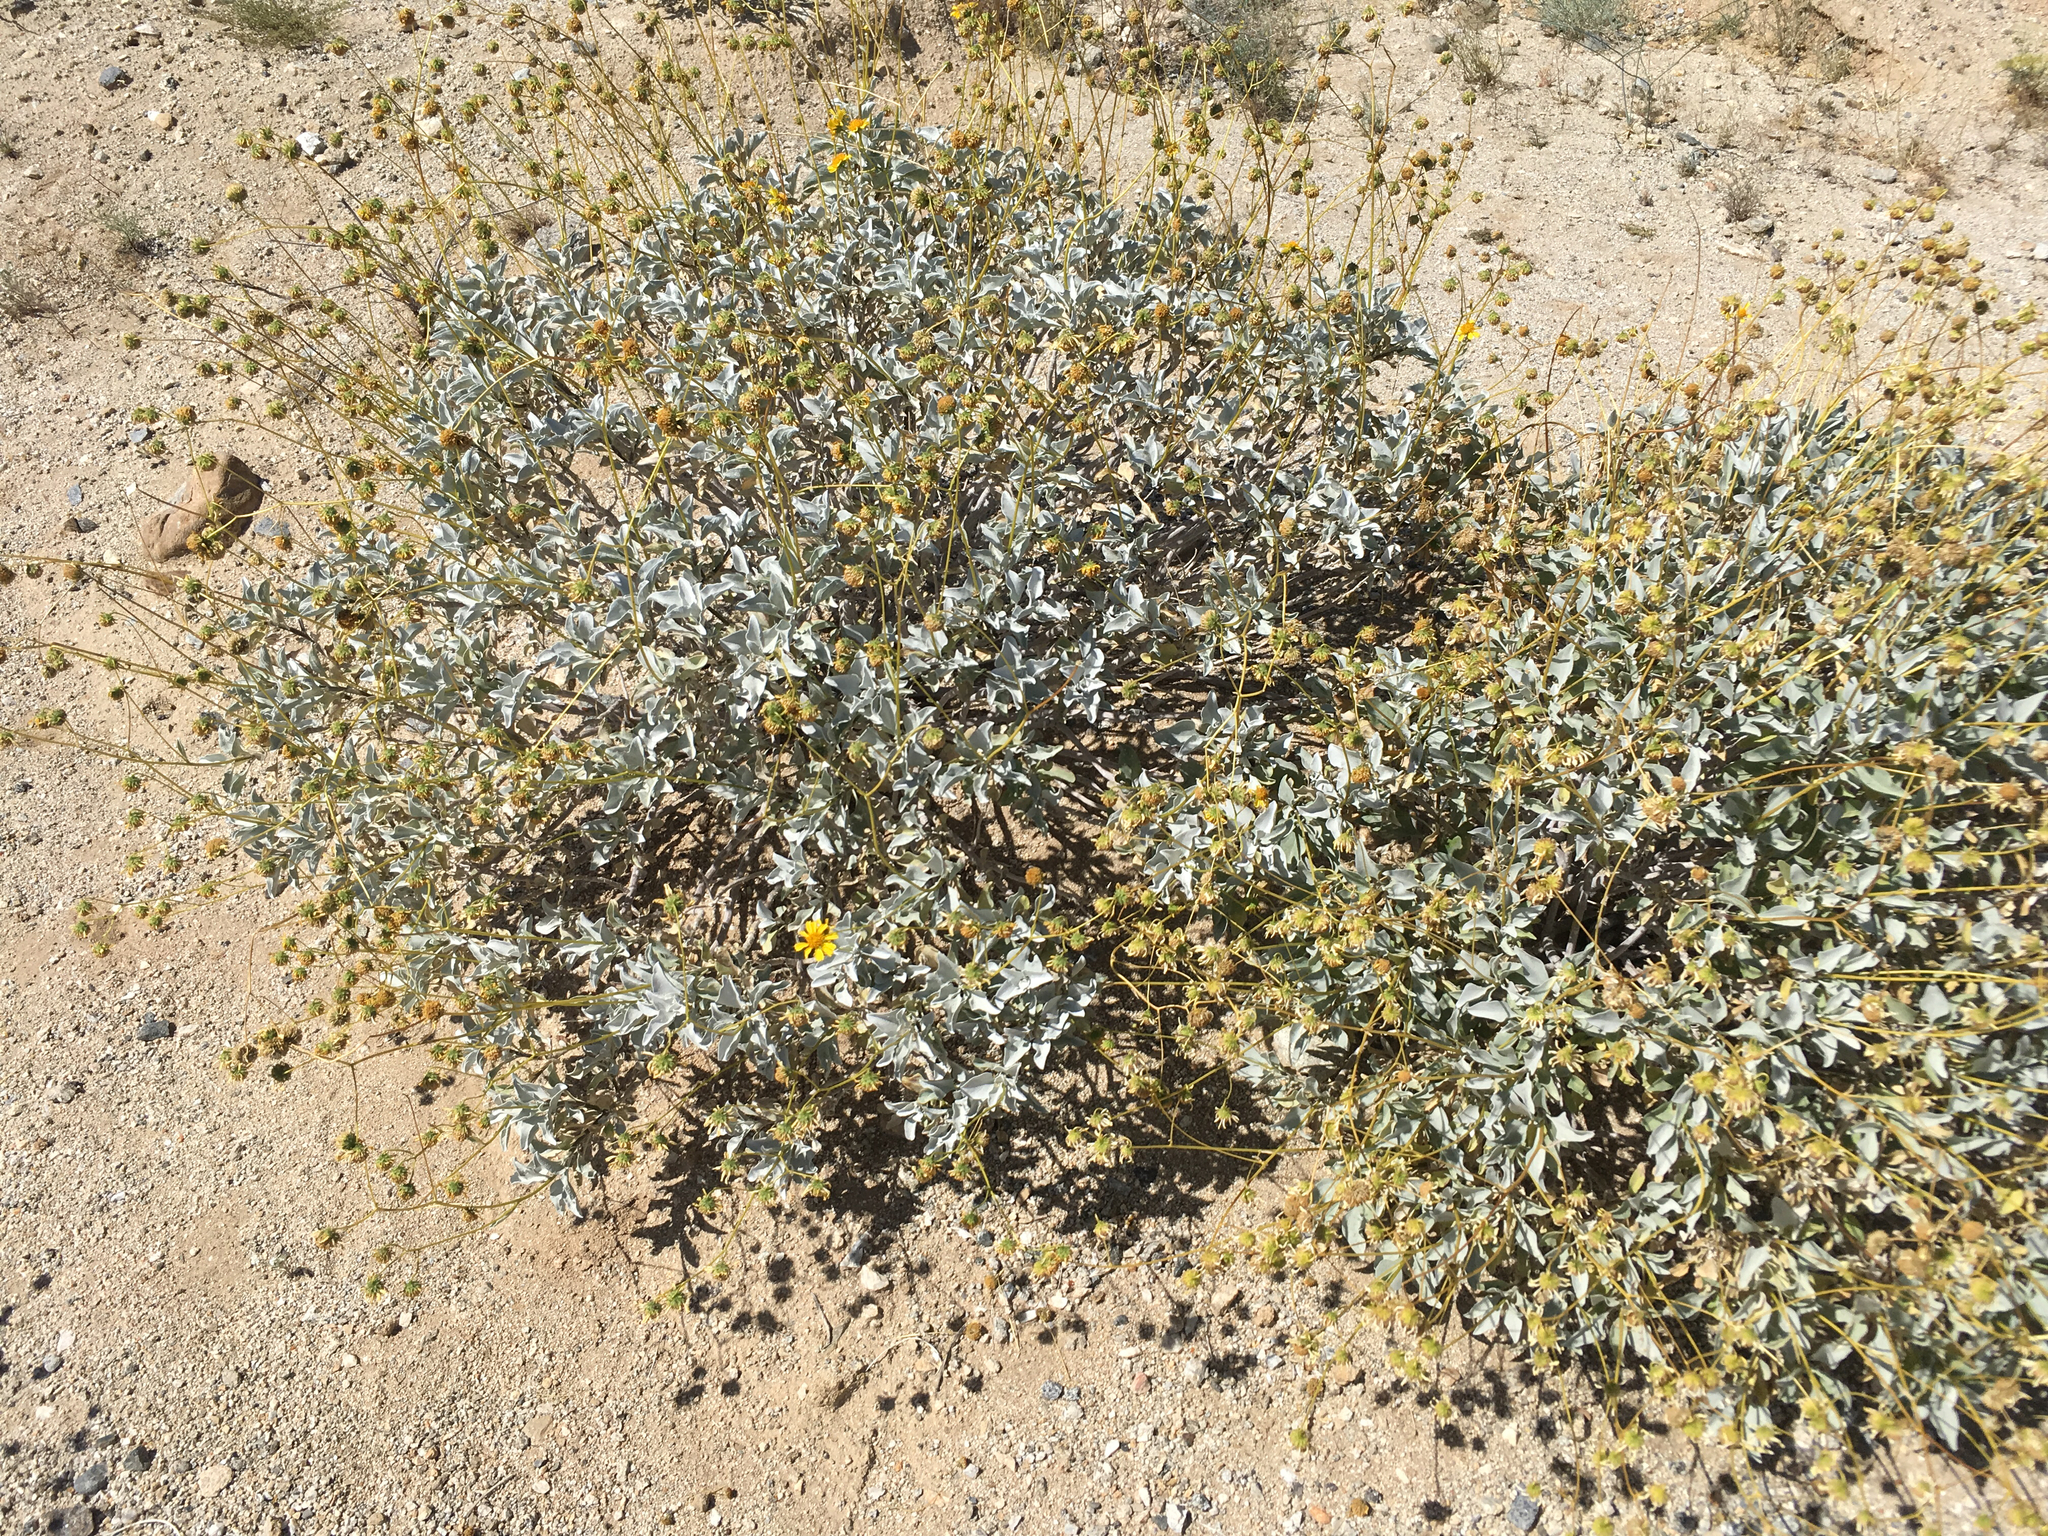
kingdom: Plantae
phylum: Tracheophyta
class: Magnoliopsida
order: Asterales
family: Asteraceae
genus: Encelia
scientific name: Encelia farinosa
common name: Brittlebush
